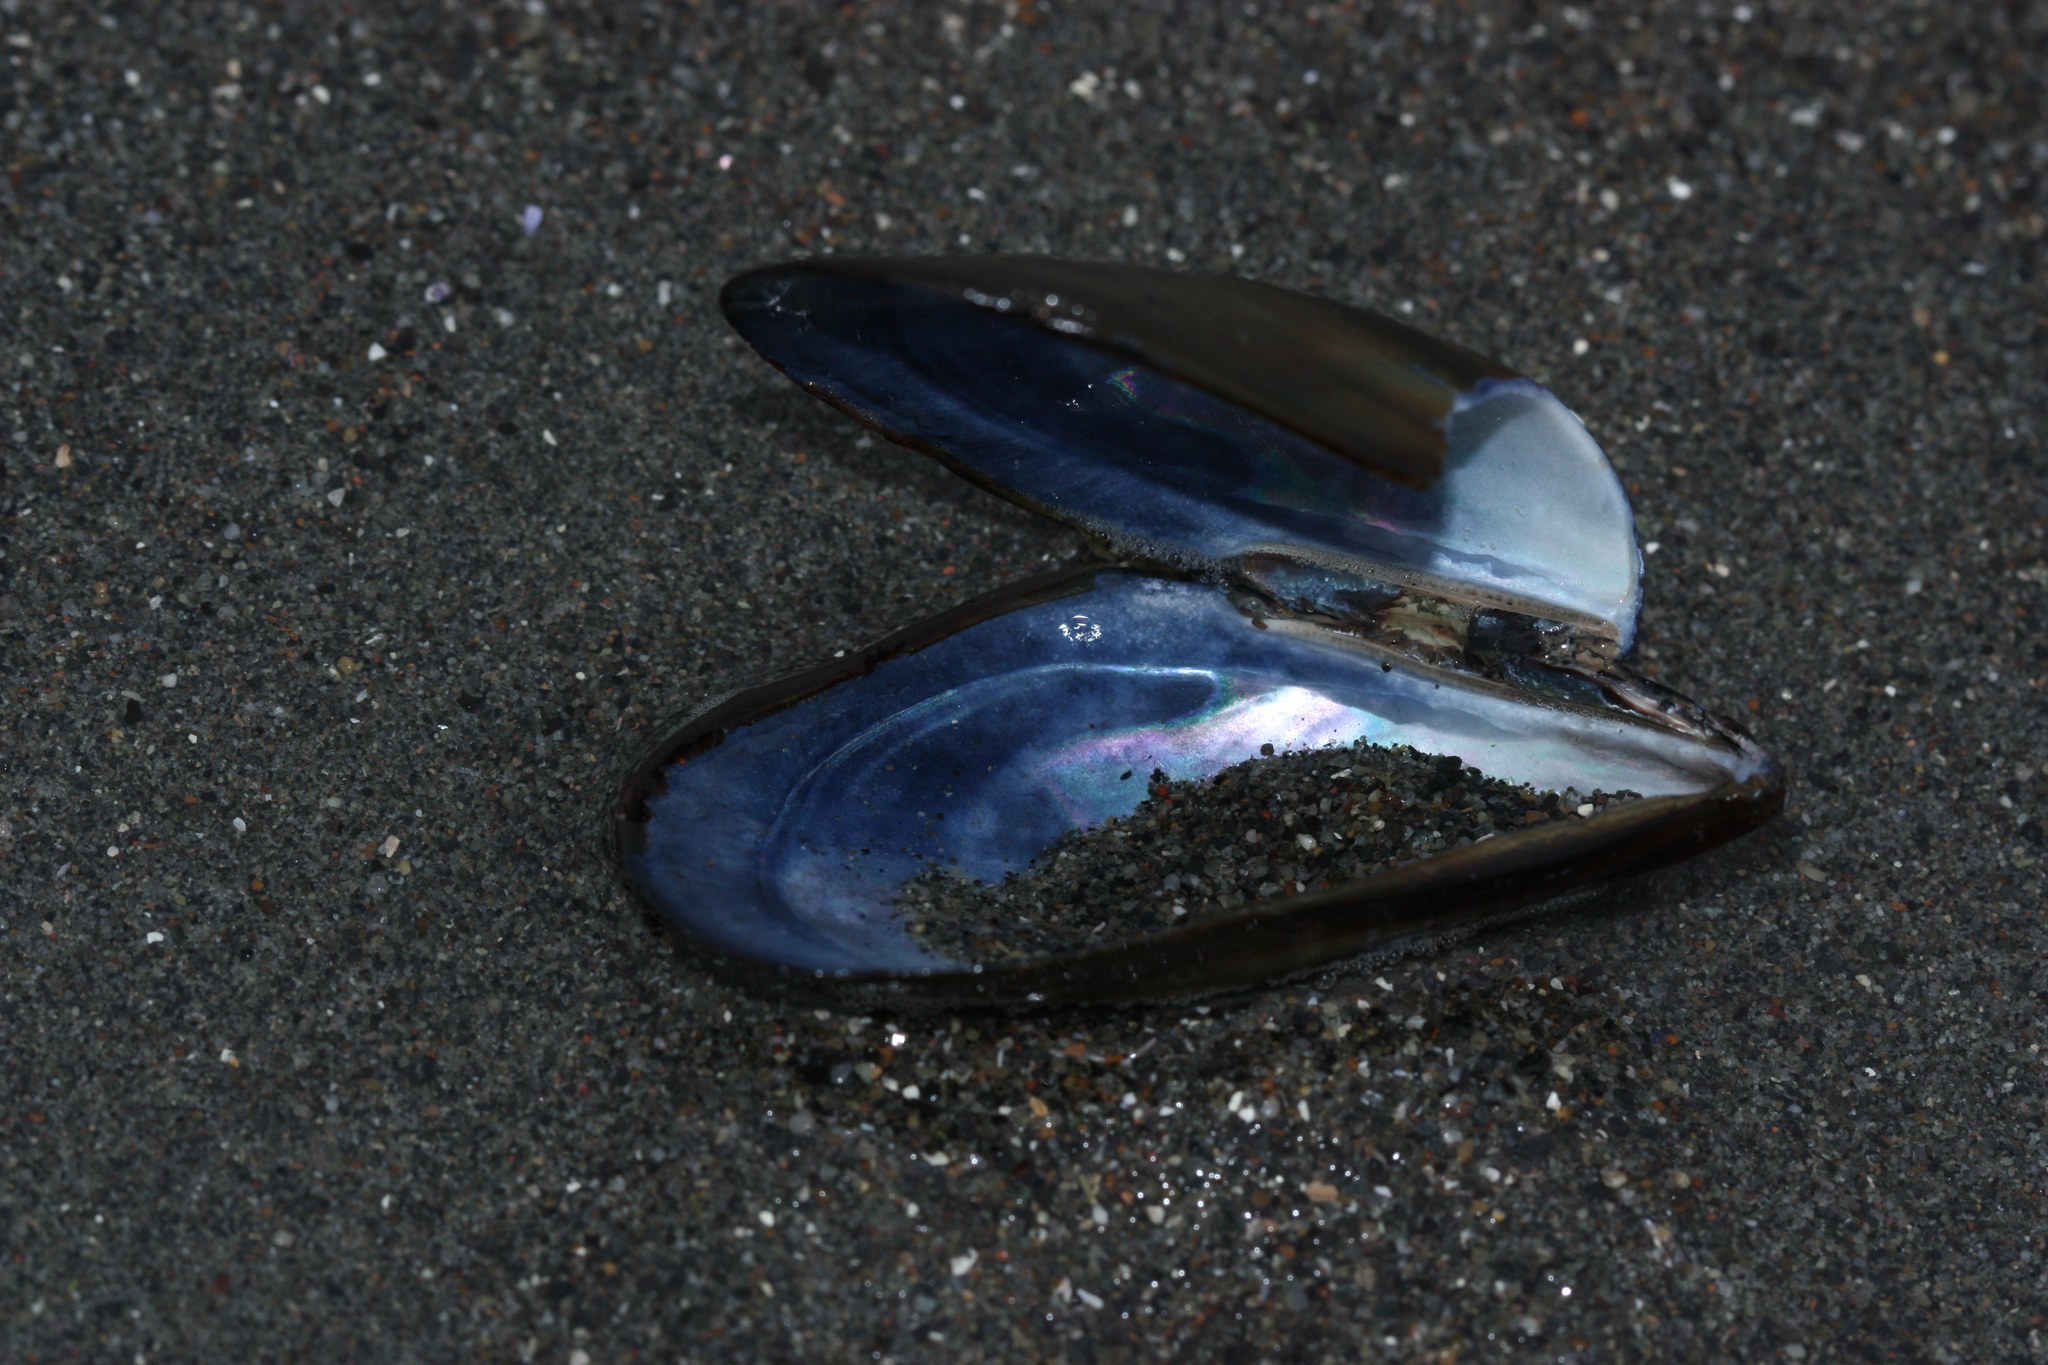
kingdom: Animalia
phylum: Mollusca
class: Bivalvia
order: Mytilida
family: Mytilidae
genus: Mytilus
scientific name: Mytilus trossulus
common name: Northern blue mussel
